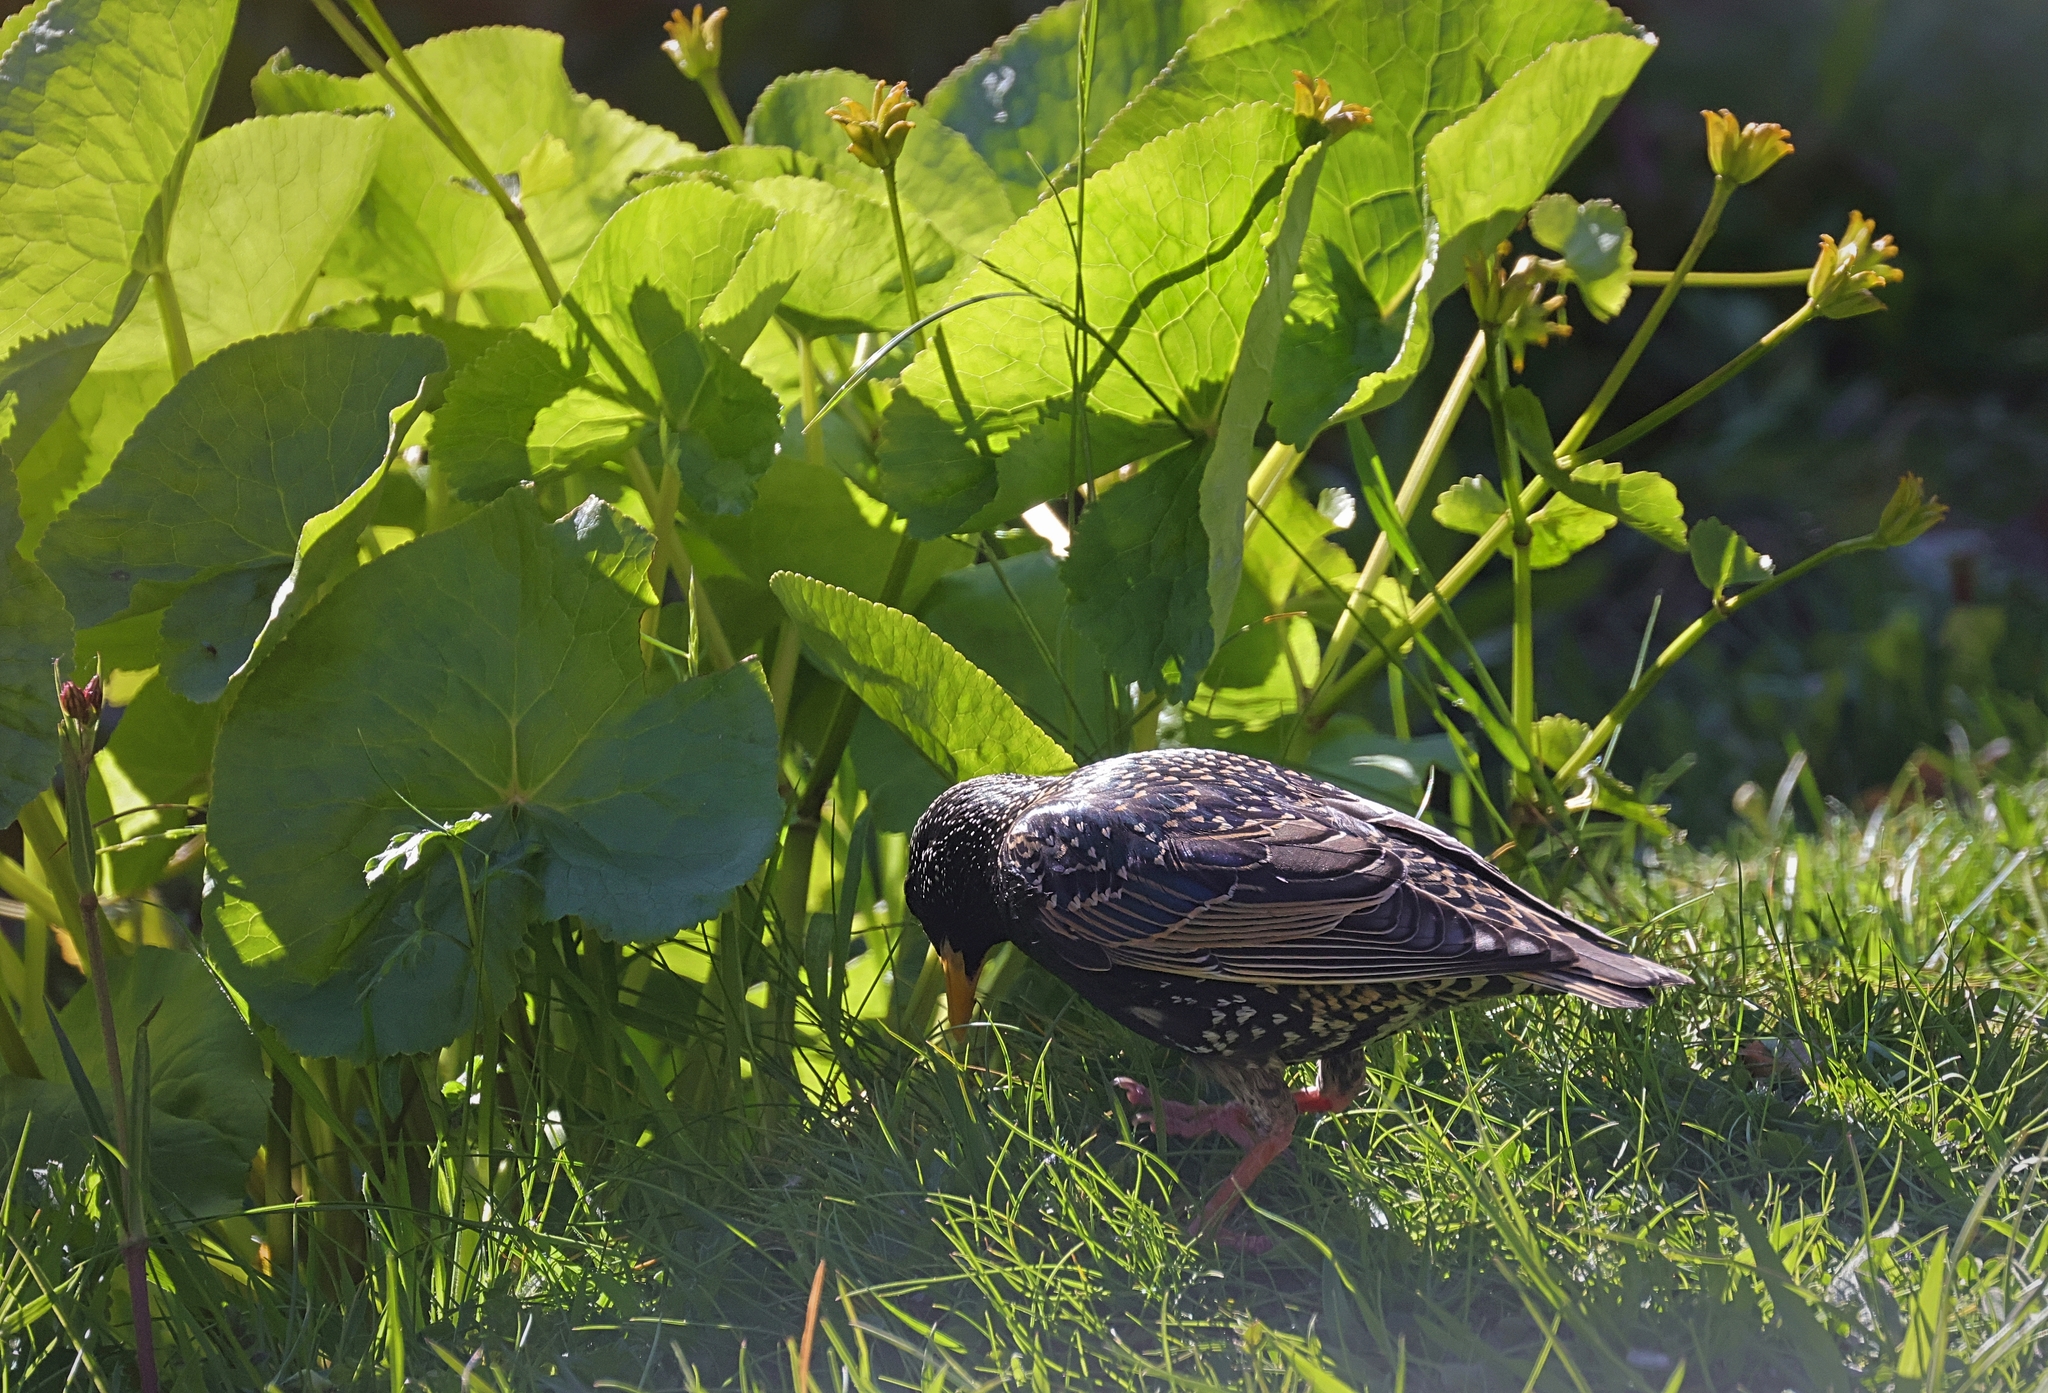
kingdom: Animalia
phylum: Chordata
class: Aves
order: Passeriformes
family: Sturnidae
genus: Sturnus
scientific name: Sturnus vulgaris
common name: Common starling
